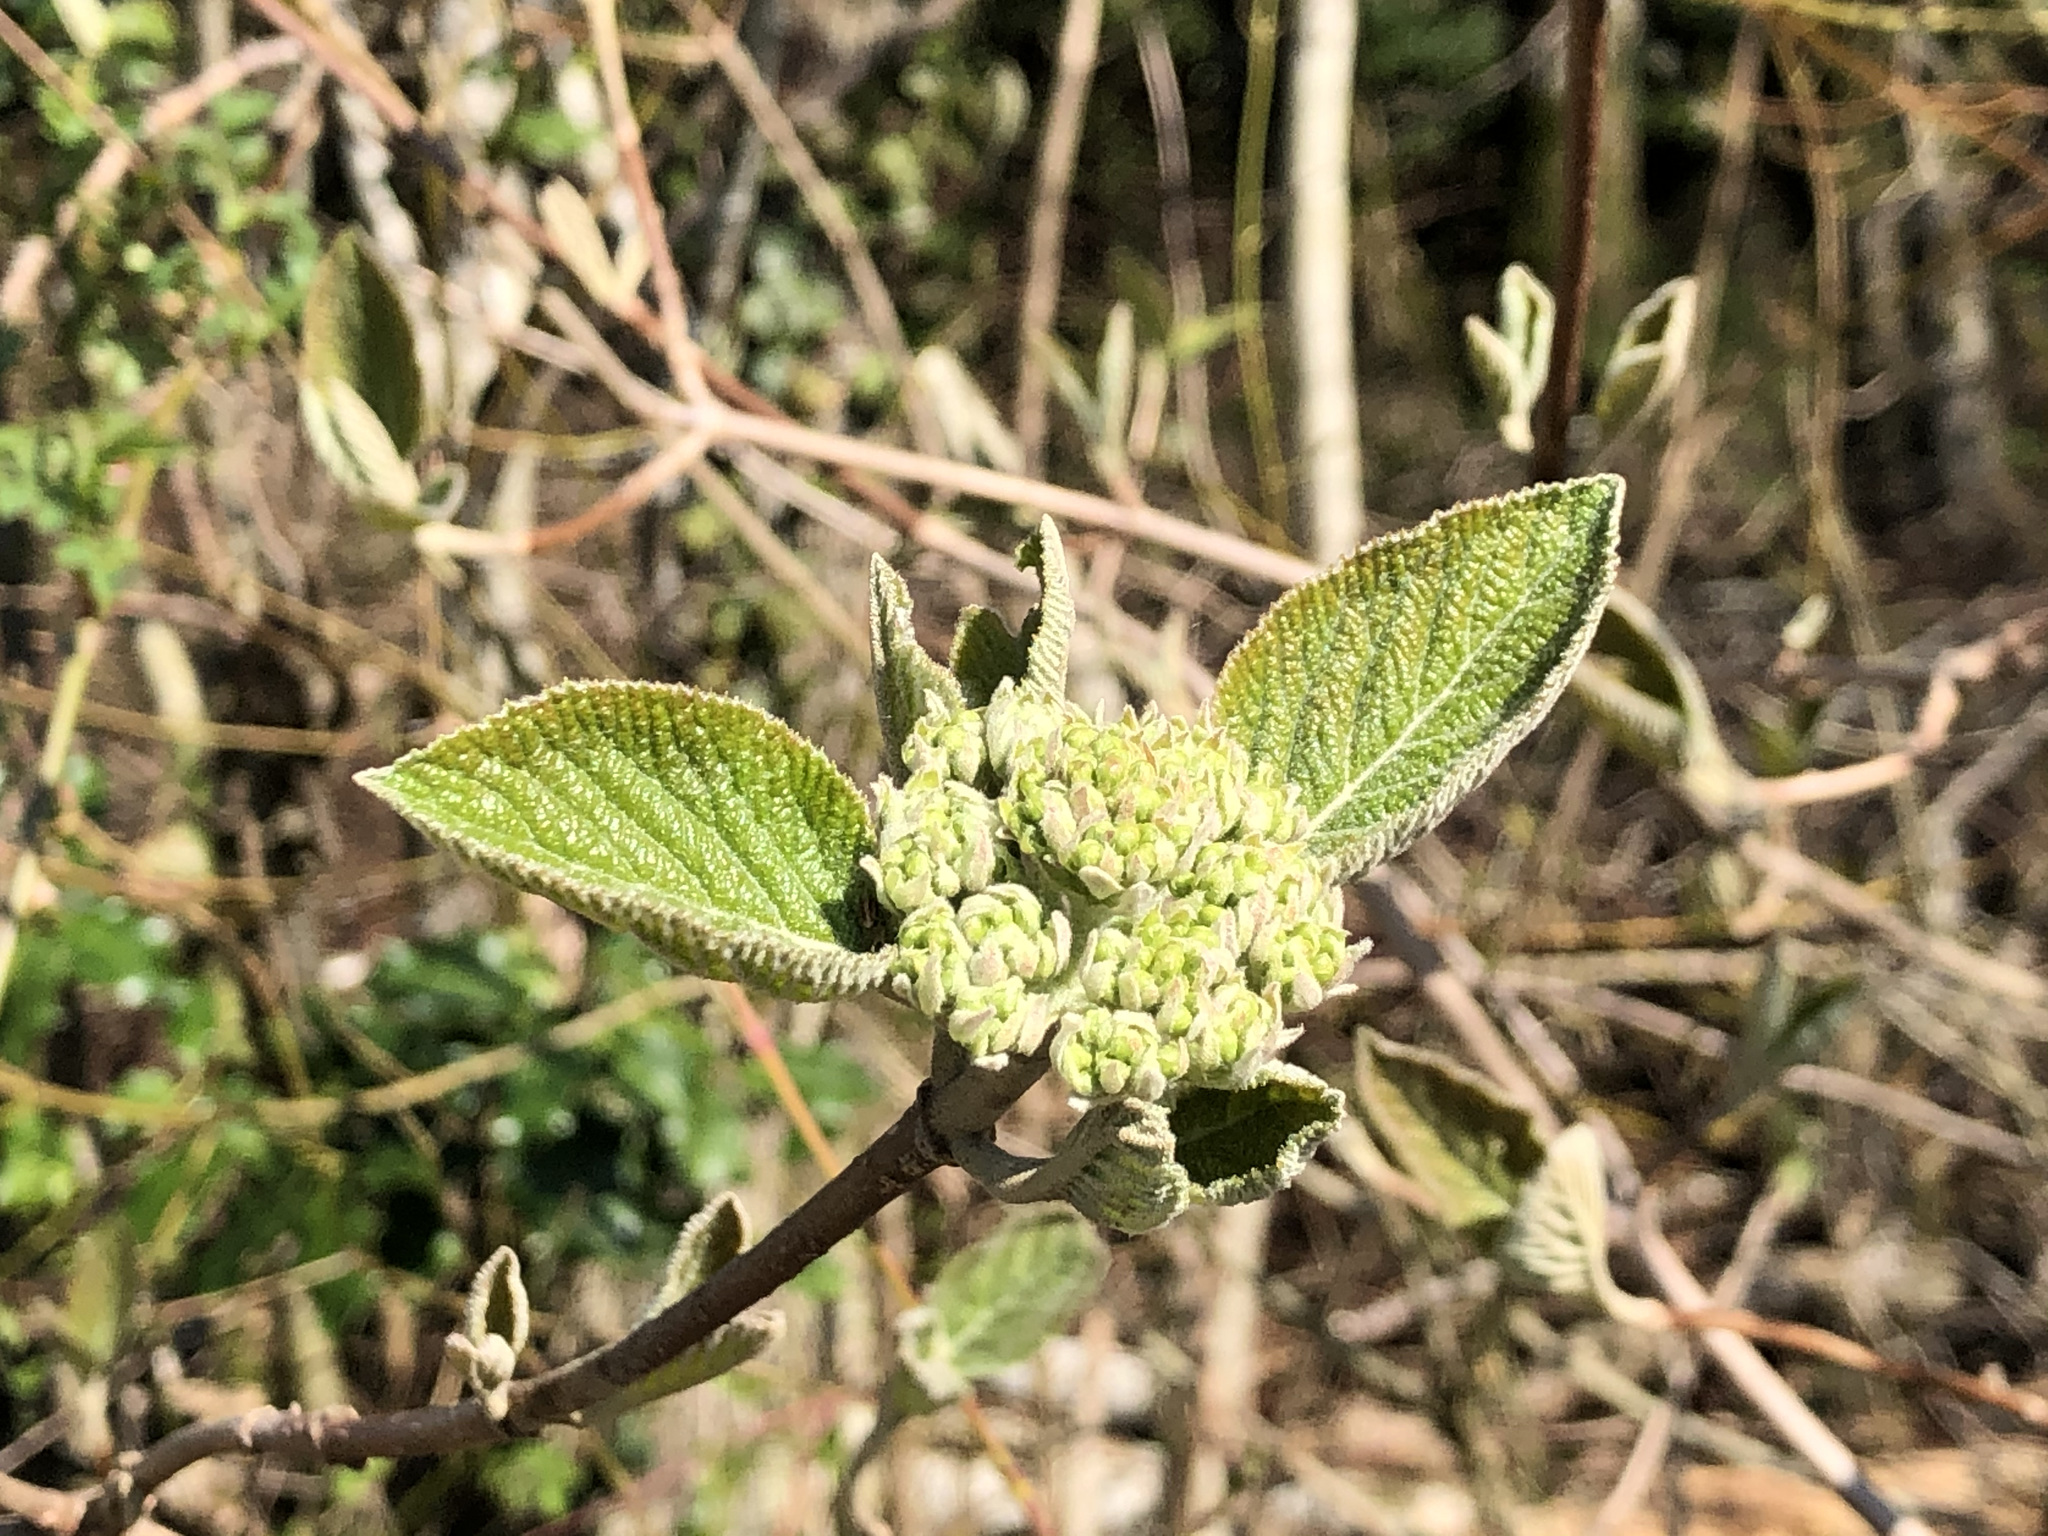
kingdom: Plantae
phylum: Tracheophyta
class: Magnoliopsida
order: Dipsacales
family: Viburnaceae
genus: Viburnum
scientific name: Viburnum lantana
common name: Wayfaring tree
